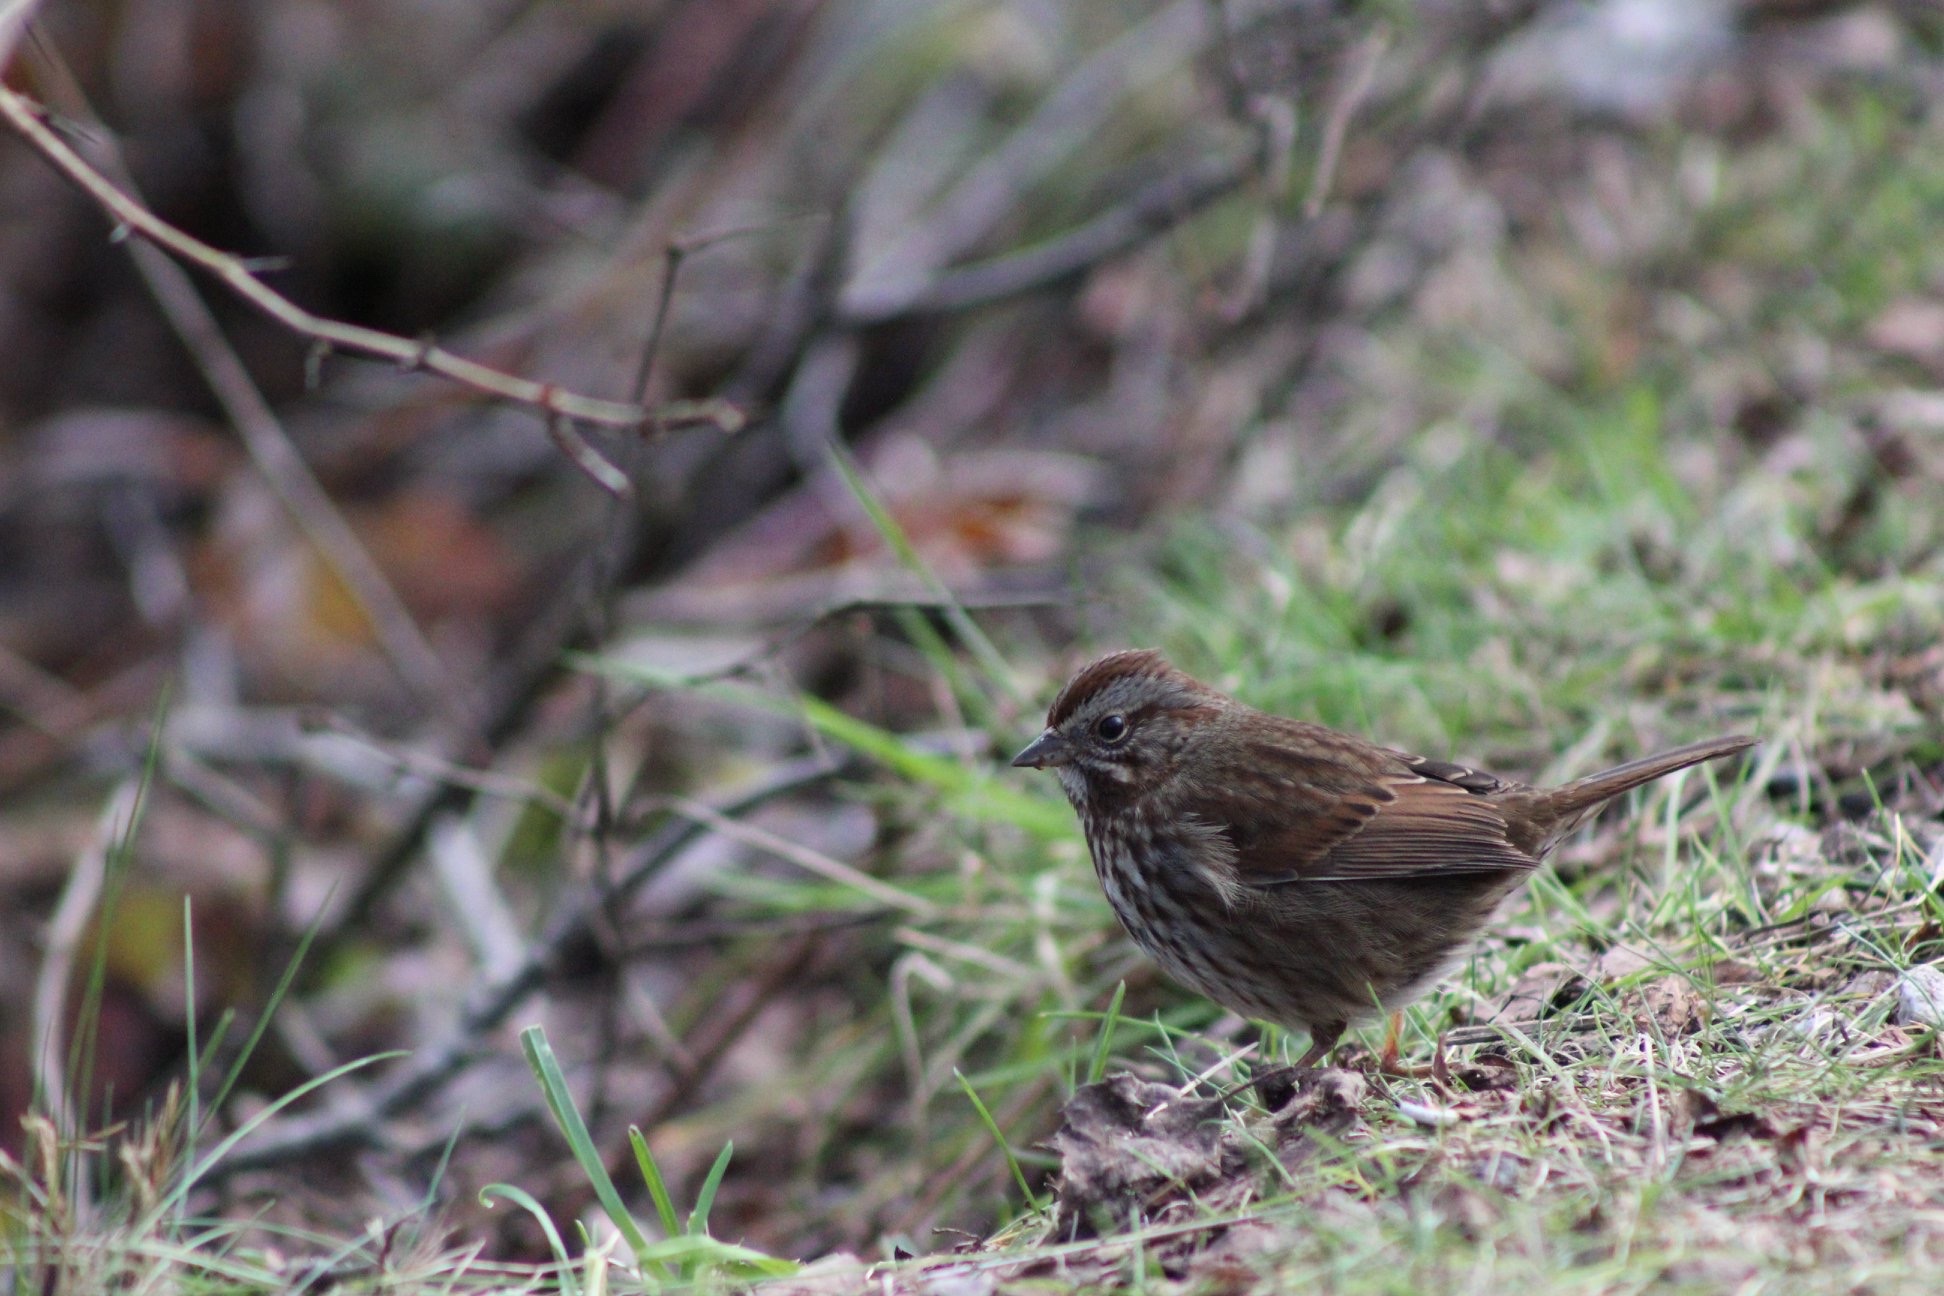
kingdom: Animalia
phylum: Chordata
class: Aves
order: Passeriformes
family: Passerellidae
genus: Melospiza
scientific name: Melospiza melodia
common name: Song sparrow
